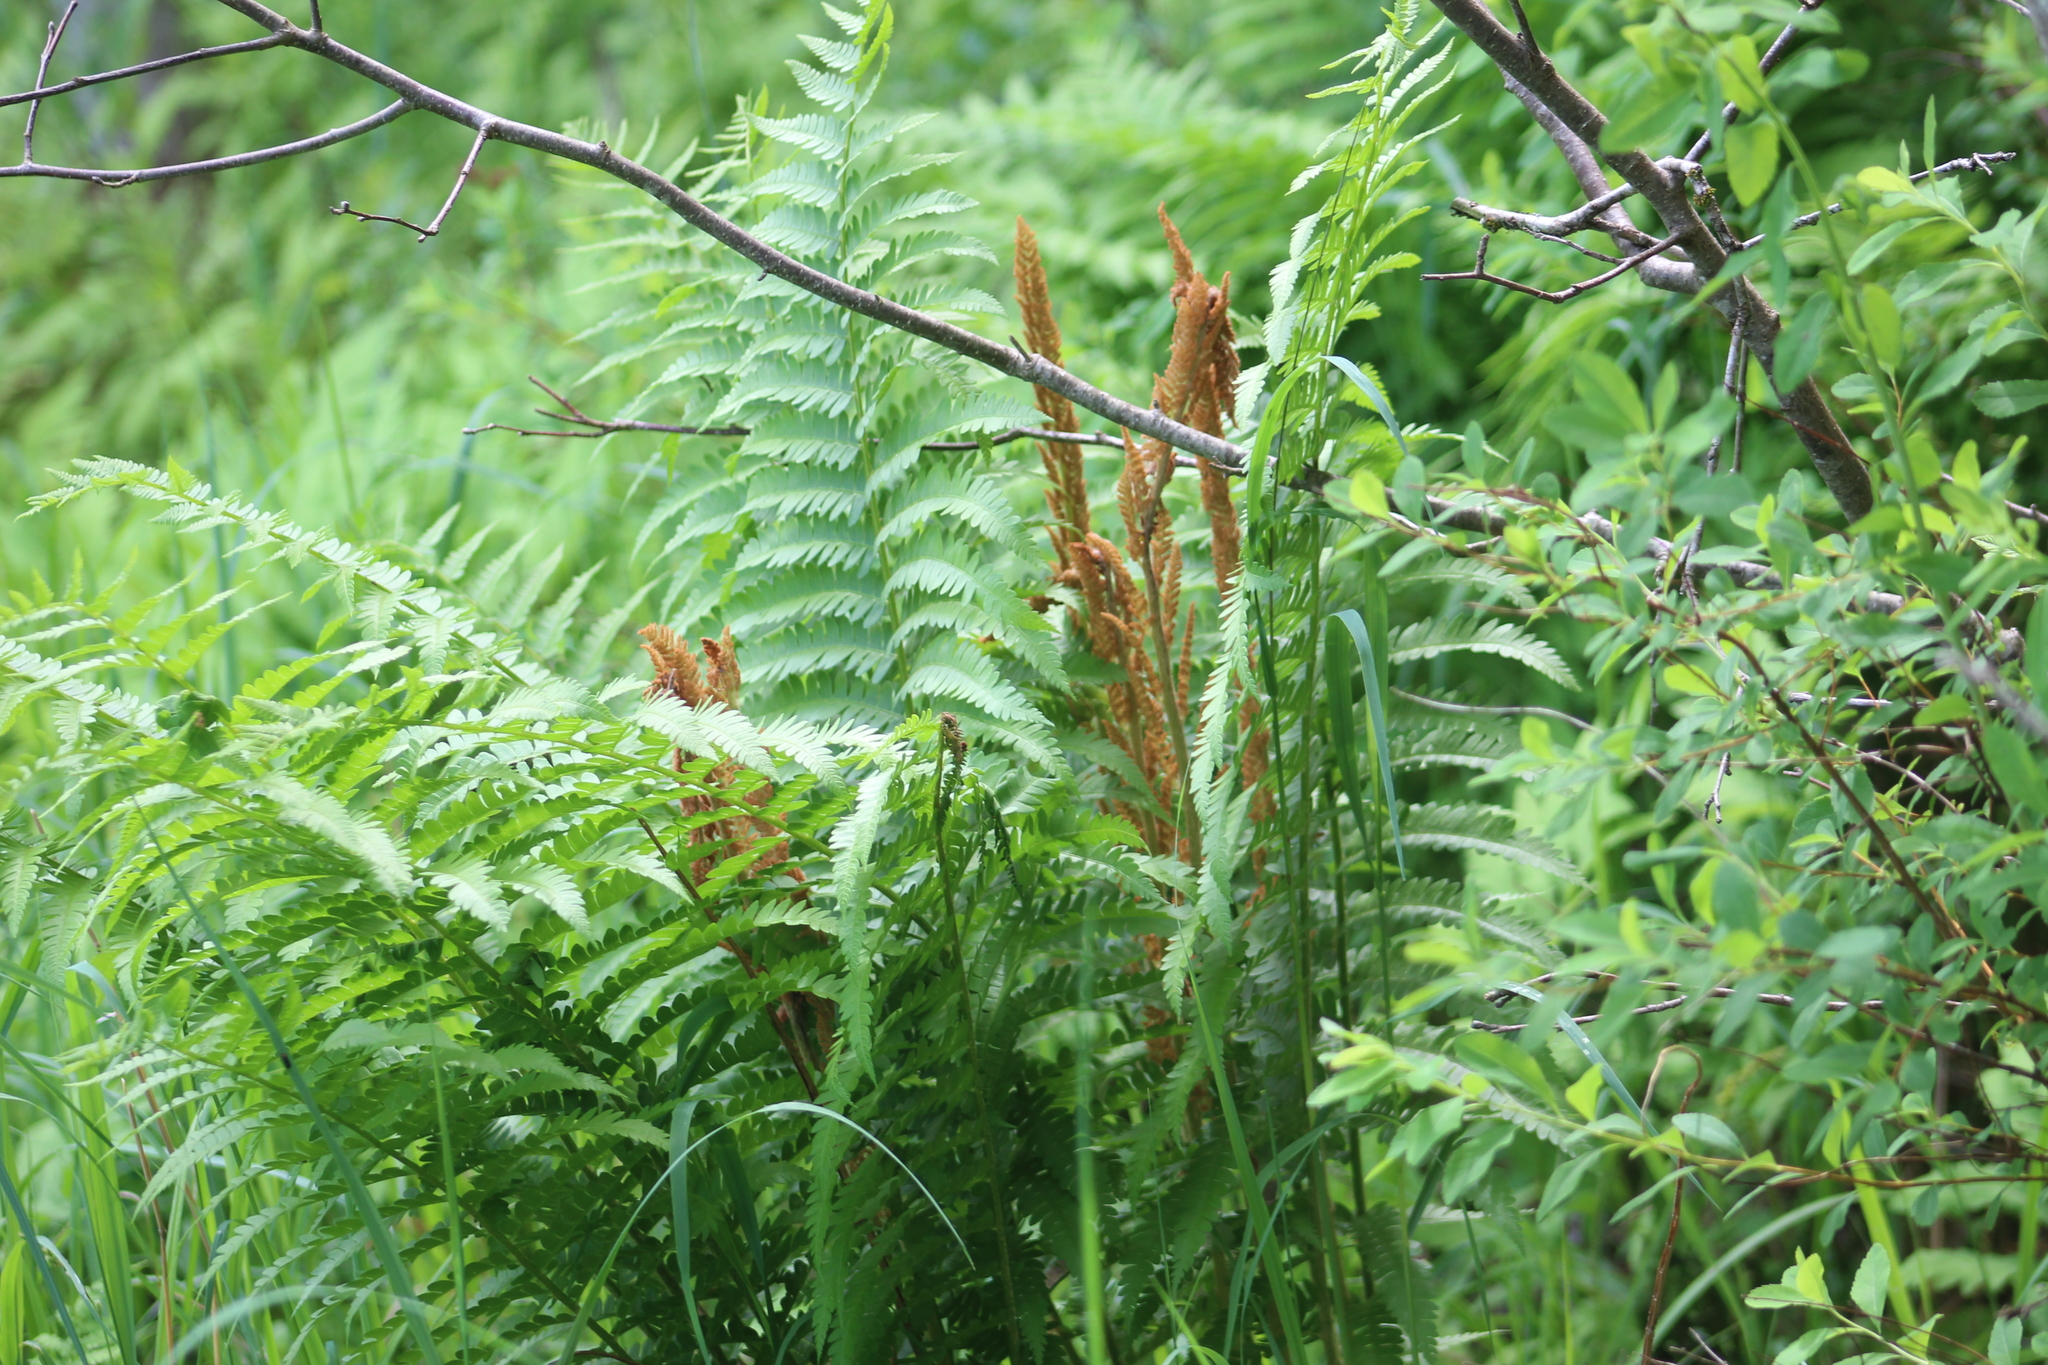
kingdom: Plantae
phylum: Tracheophyta
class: Polypodiopsida
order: Osmundales
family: Osmundaceae
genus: Osmundastrum
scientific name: Osmundastrum cinnamomeum
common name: Cinnamon fern
